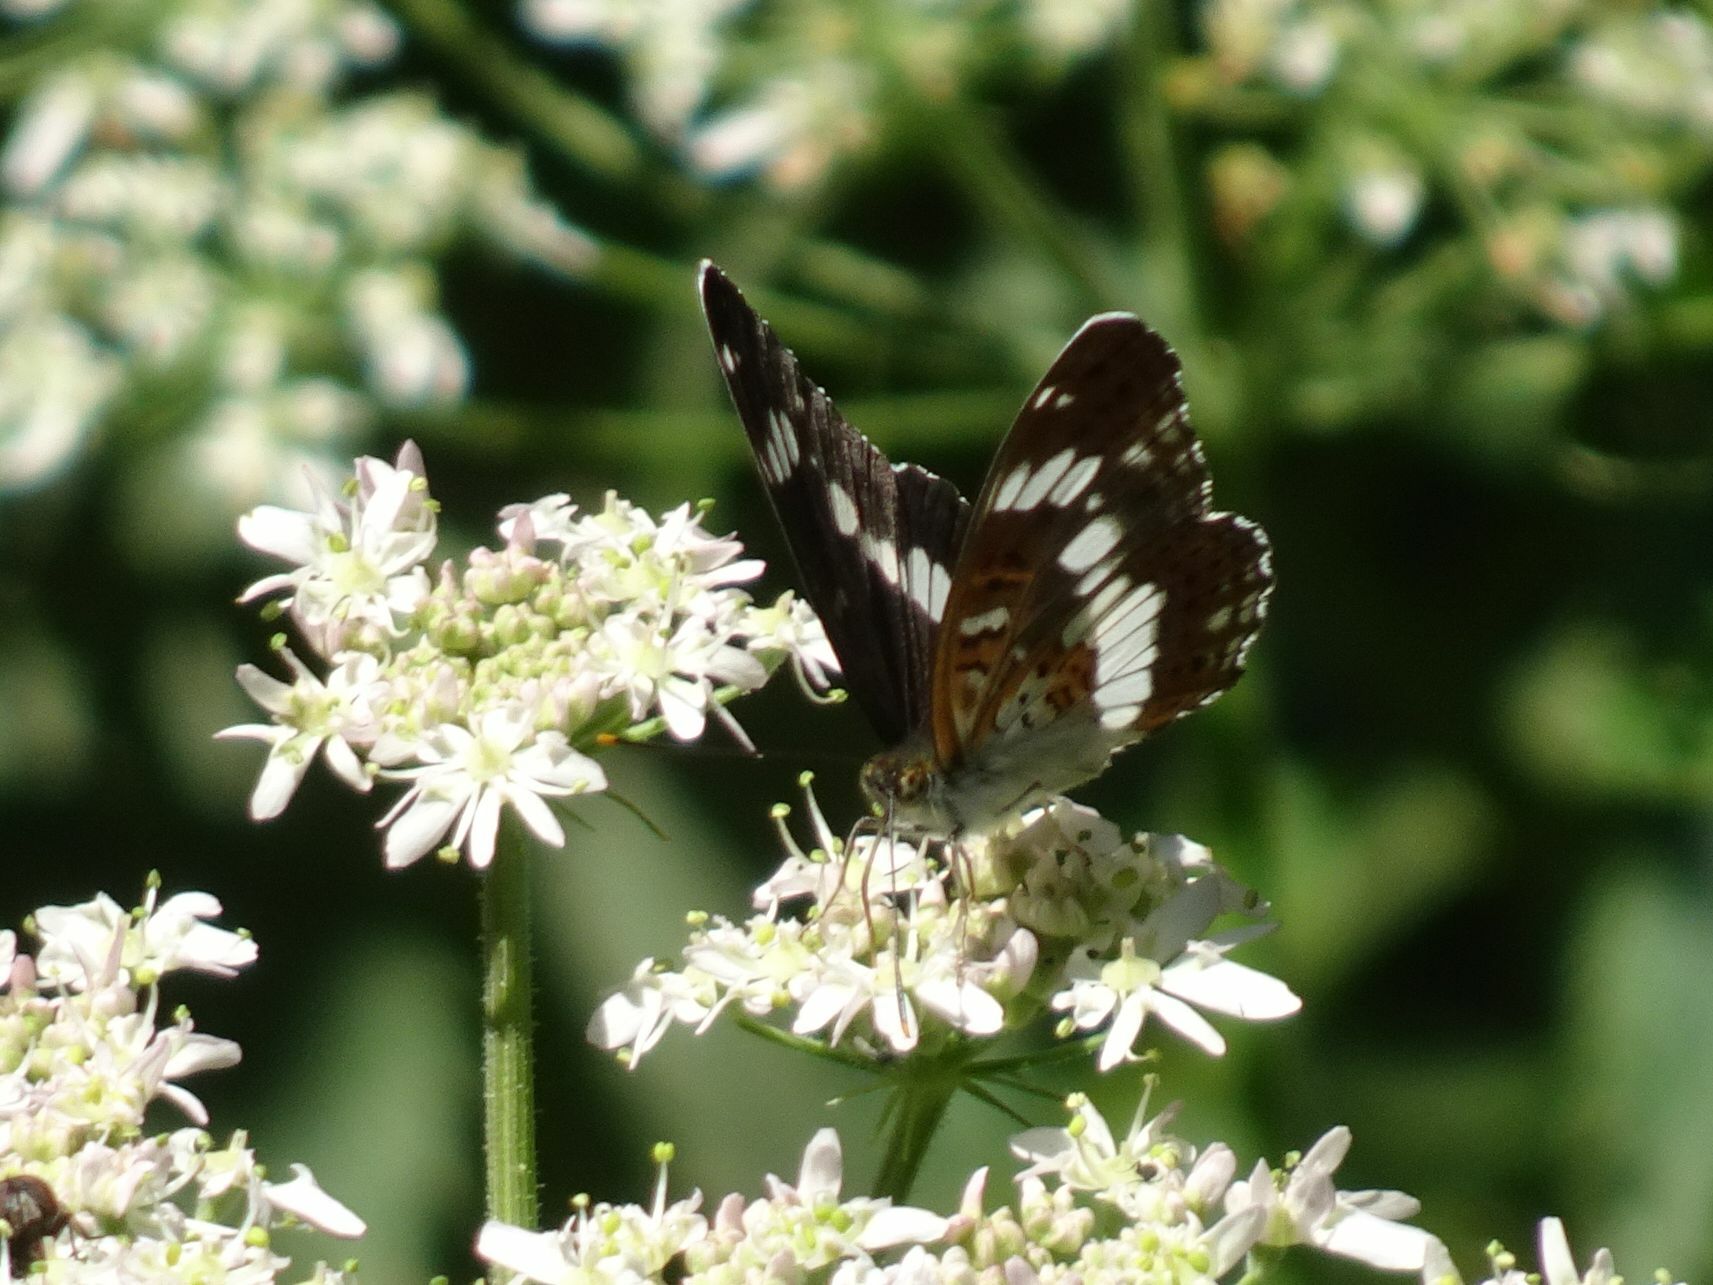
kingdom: Animalia
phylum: Arthropoda
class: Insecta
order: Lepidoptera
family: Nymphalidae
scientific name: Nymphalidae
